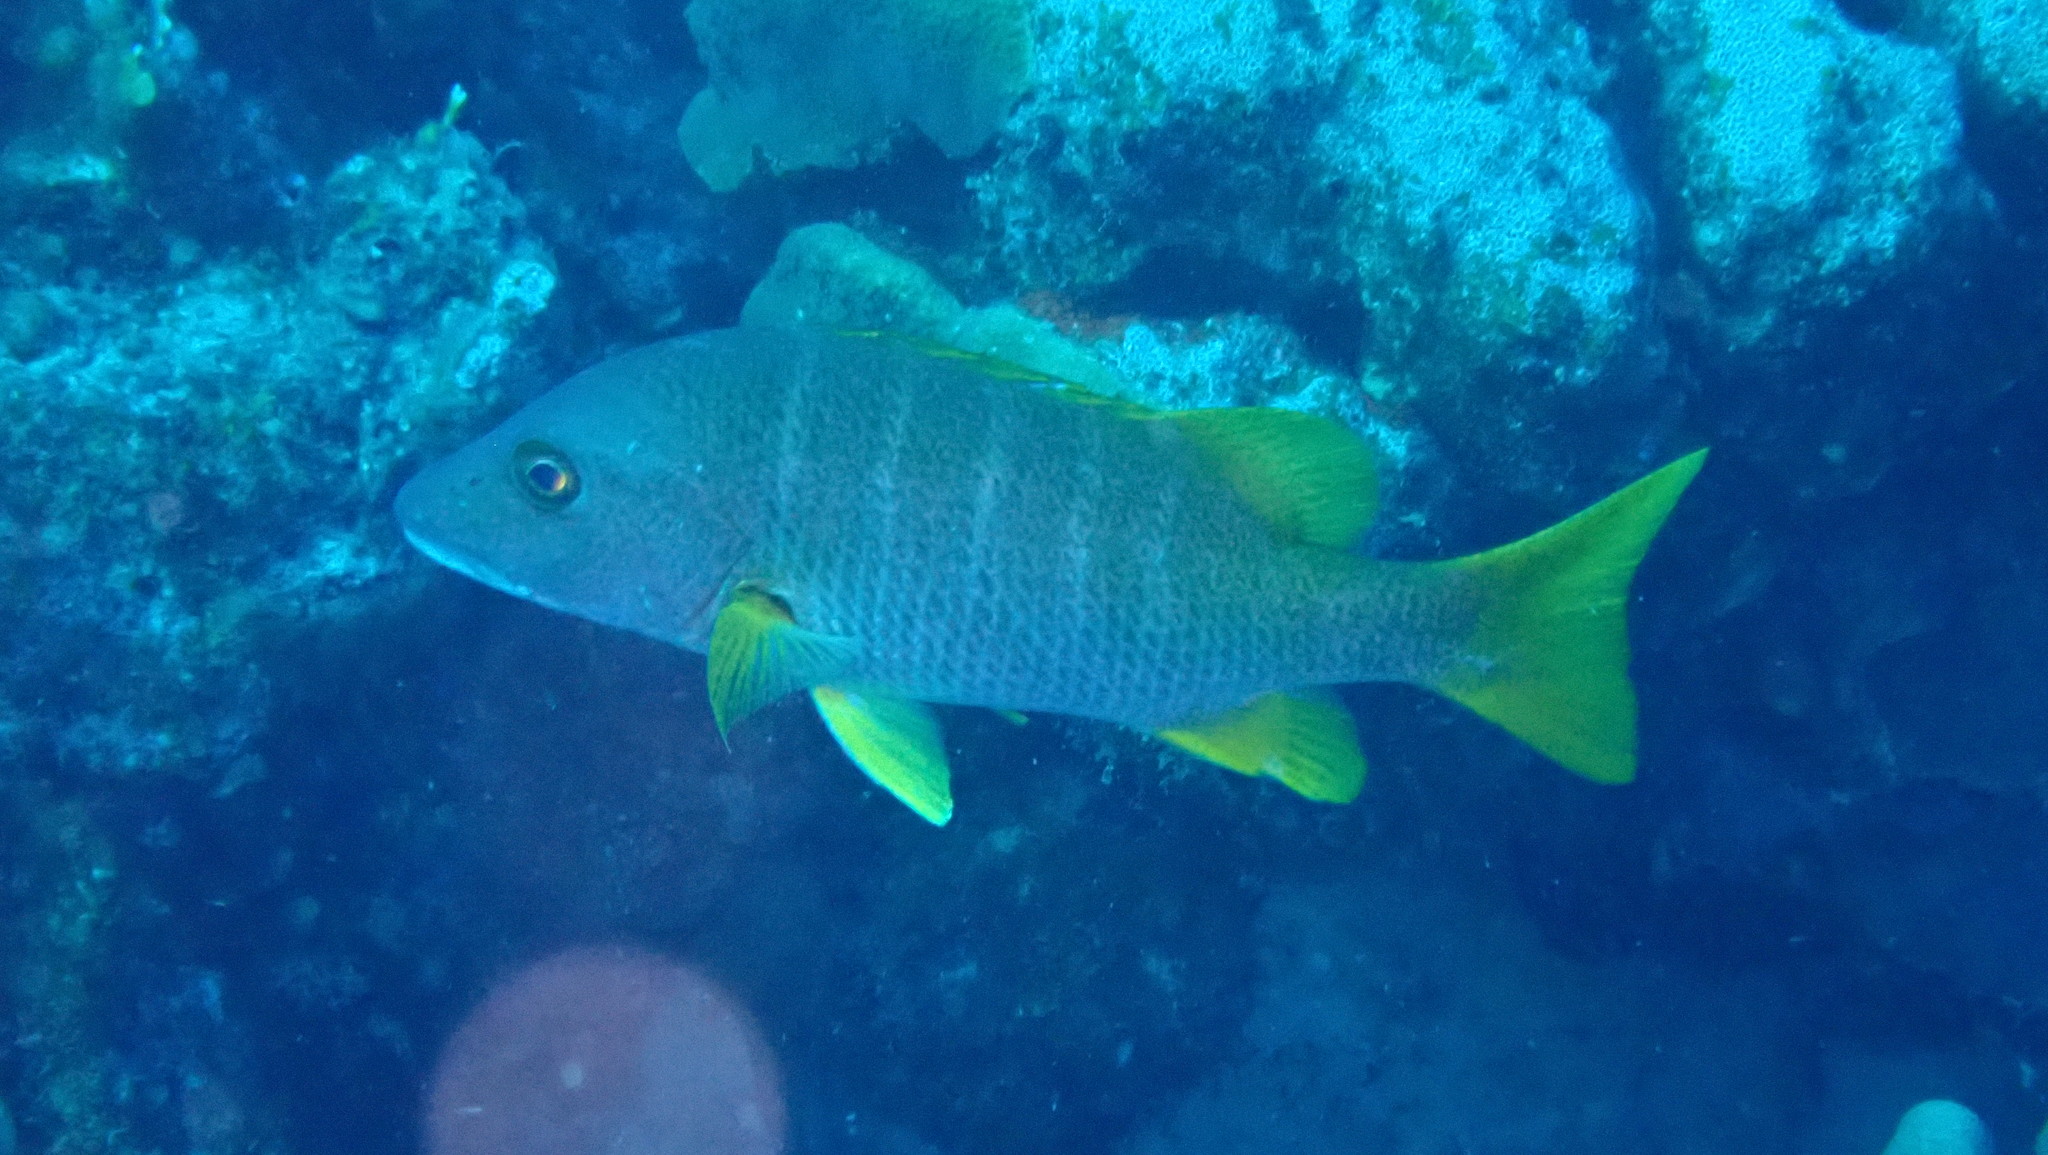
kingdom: Animalia
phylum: Chordata
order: Perciformes
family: Lutjanidae
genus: Lutjanus
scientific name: Lutjanus apodus
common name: Schoolmaster
